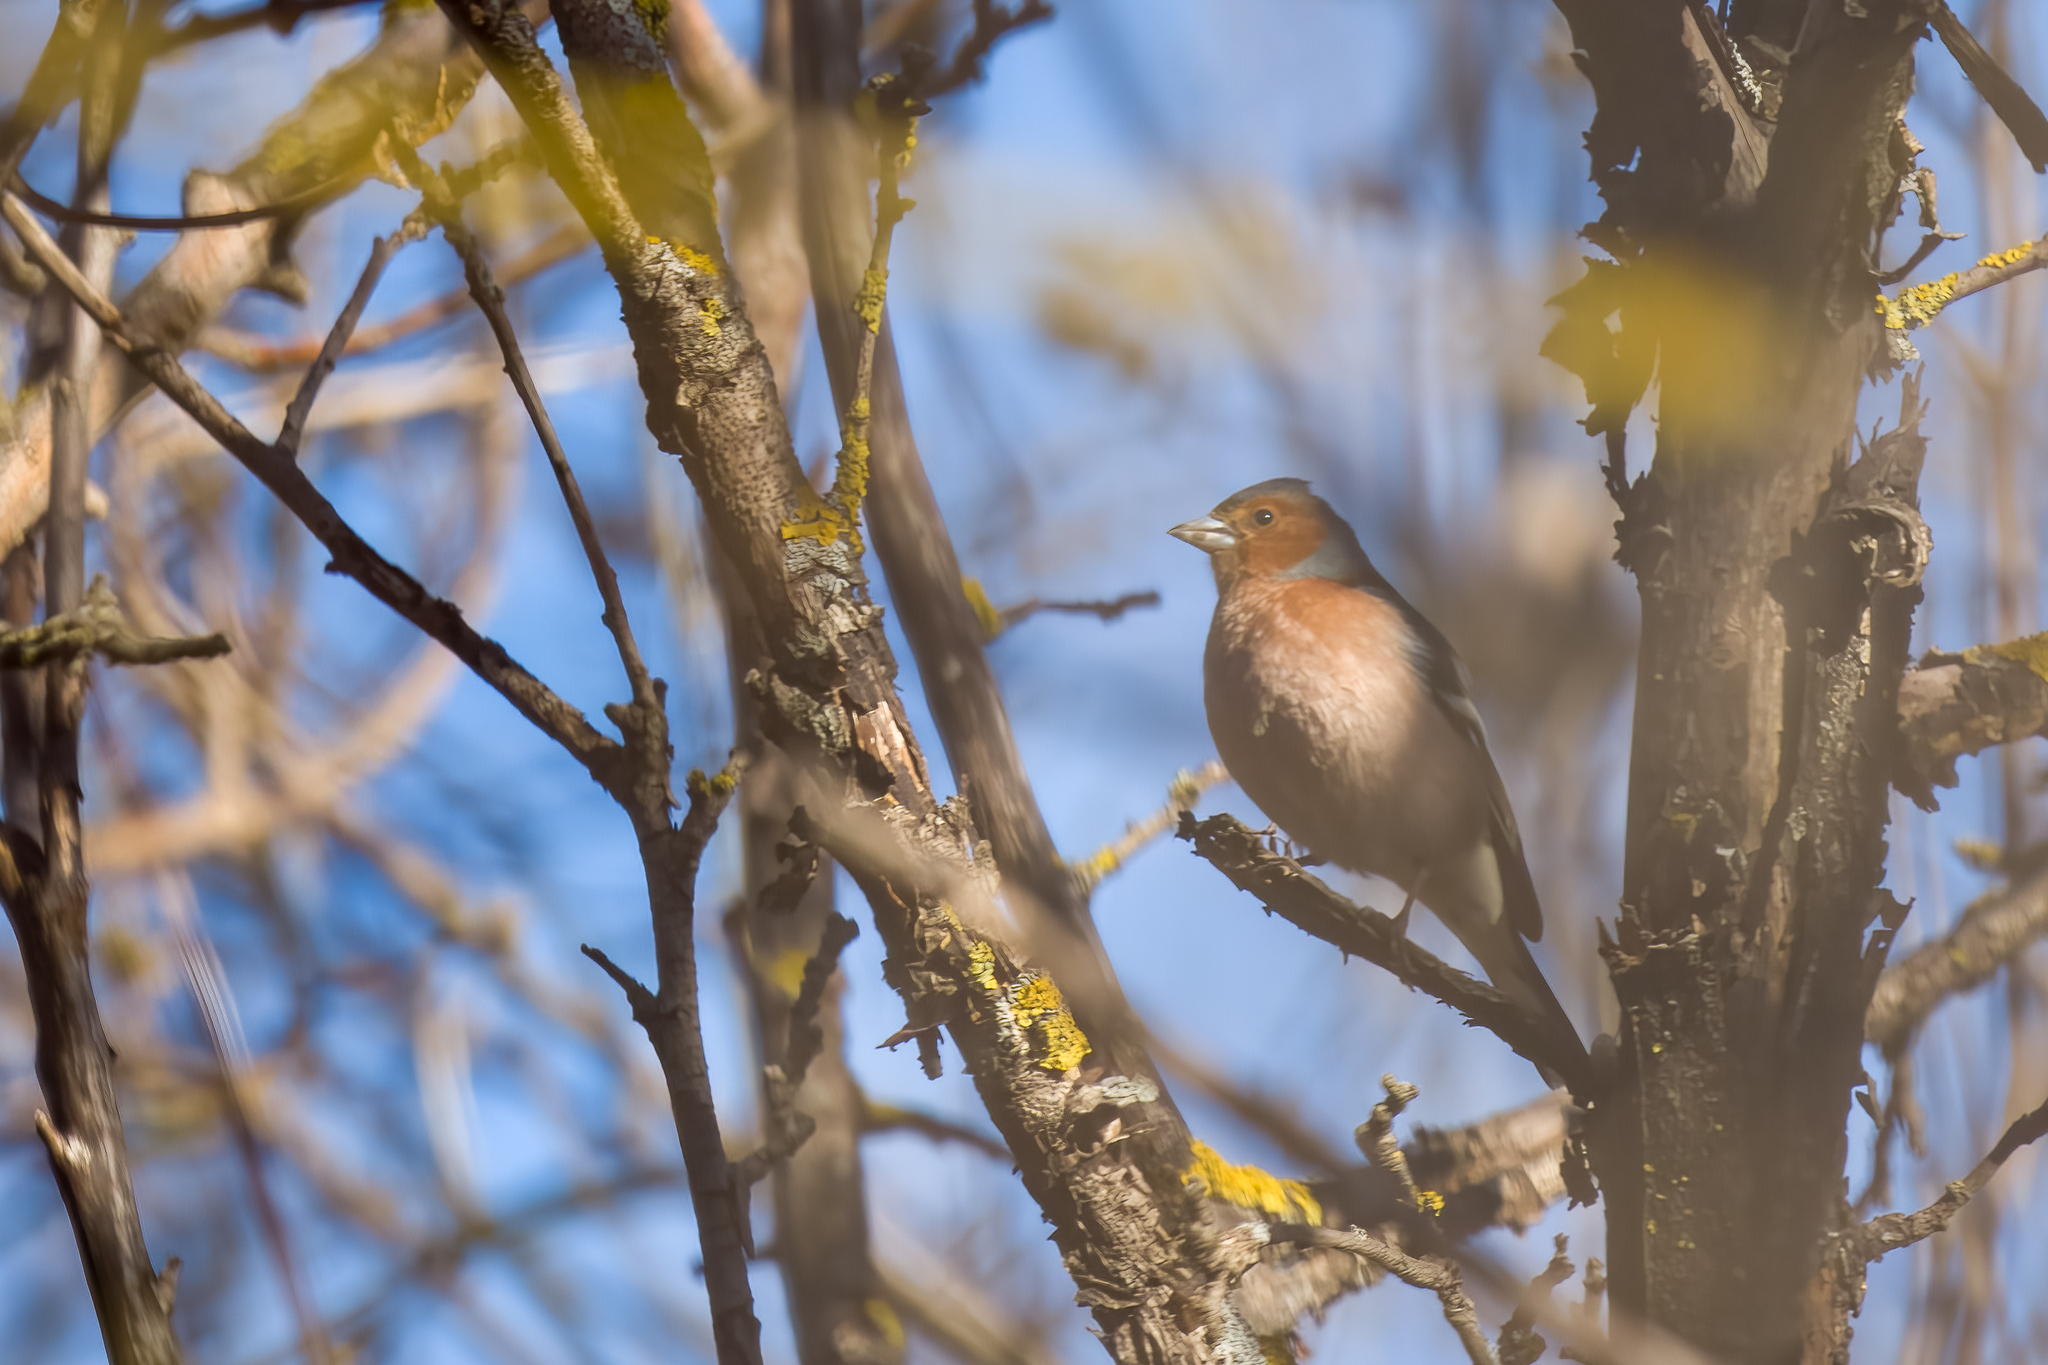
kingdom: Animalia
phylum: Chordata
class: Aves
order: Passeriformes
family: Fringillidae
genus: Fringilla
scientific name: Fringilla coelebs
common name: Common chaffinch
